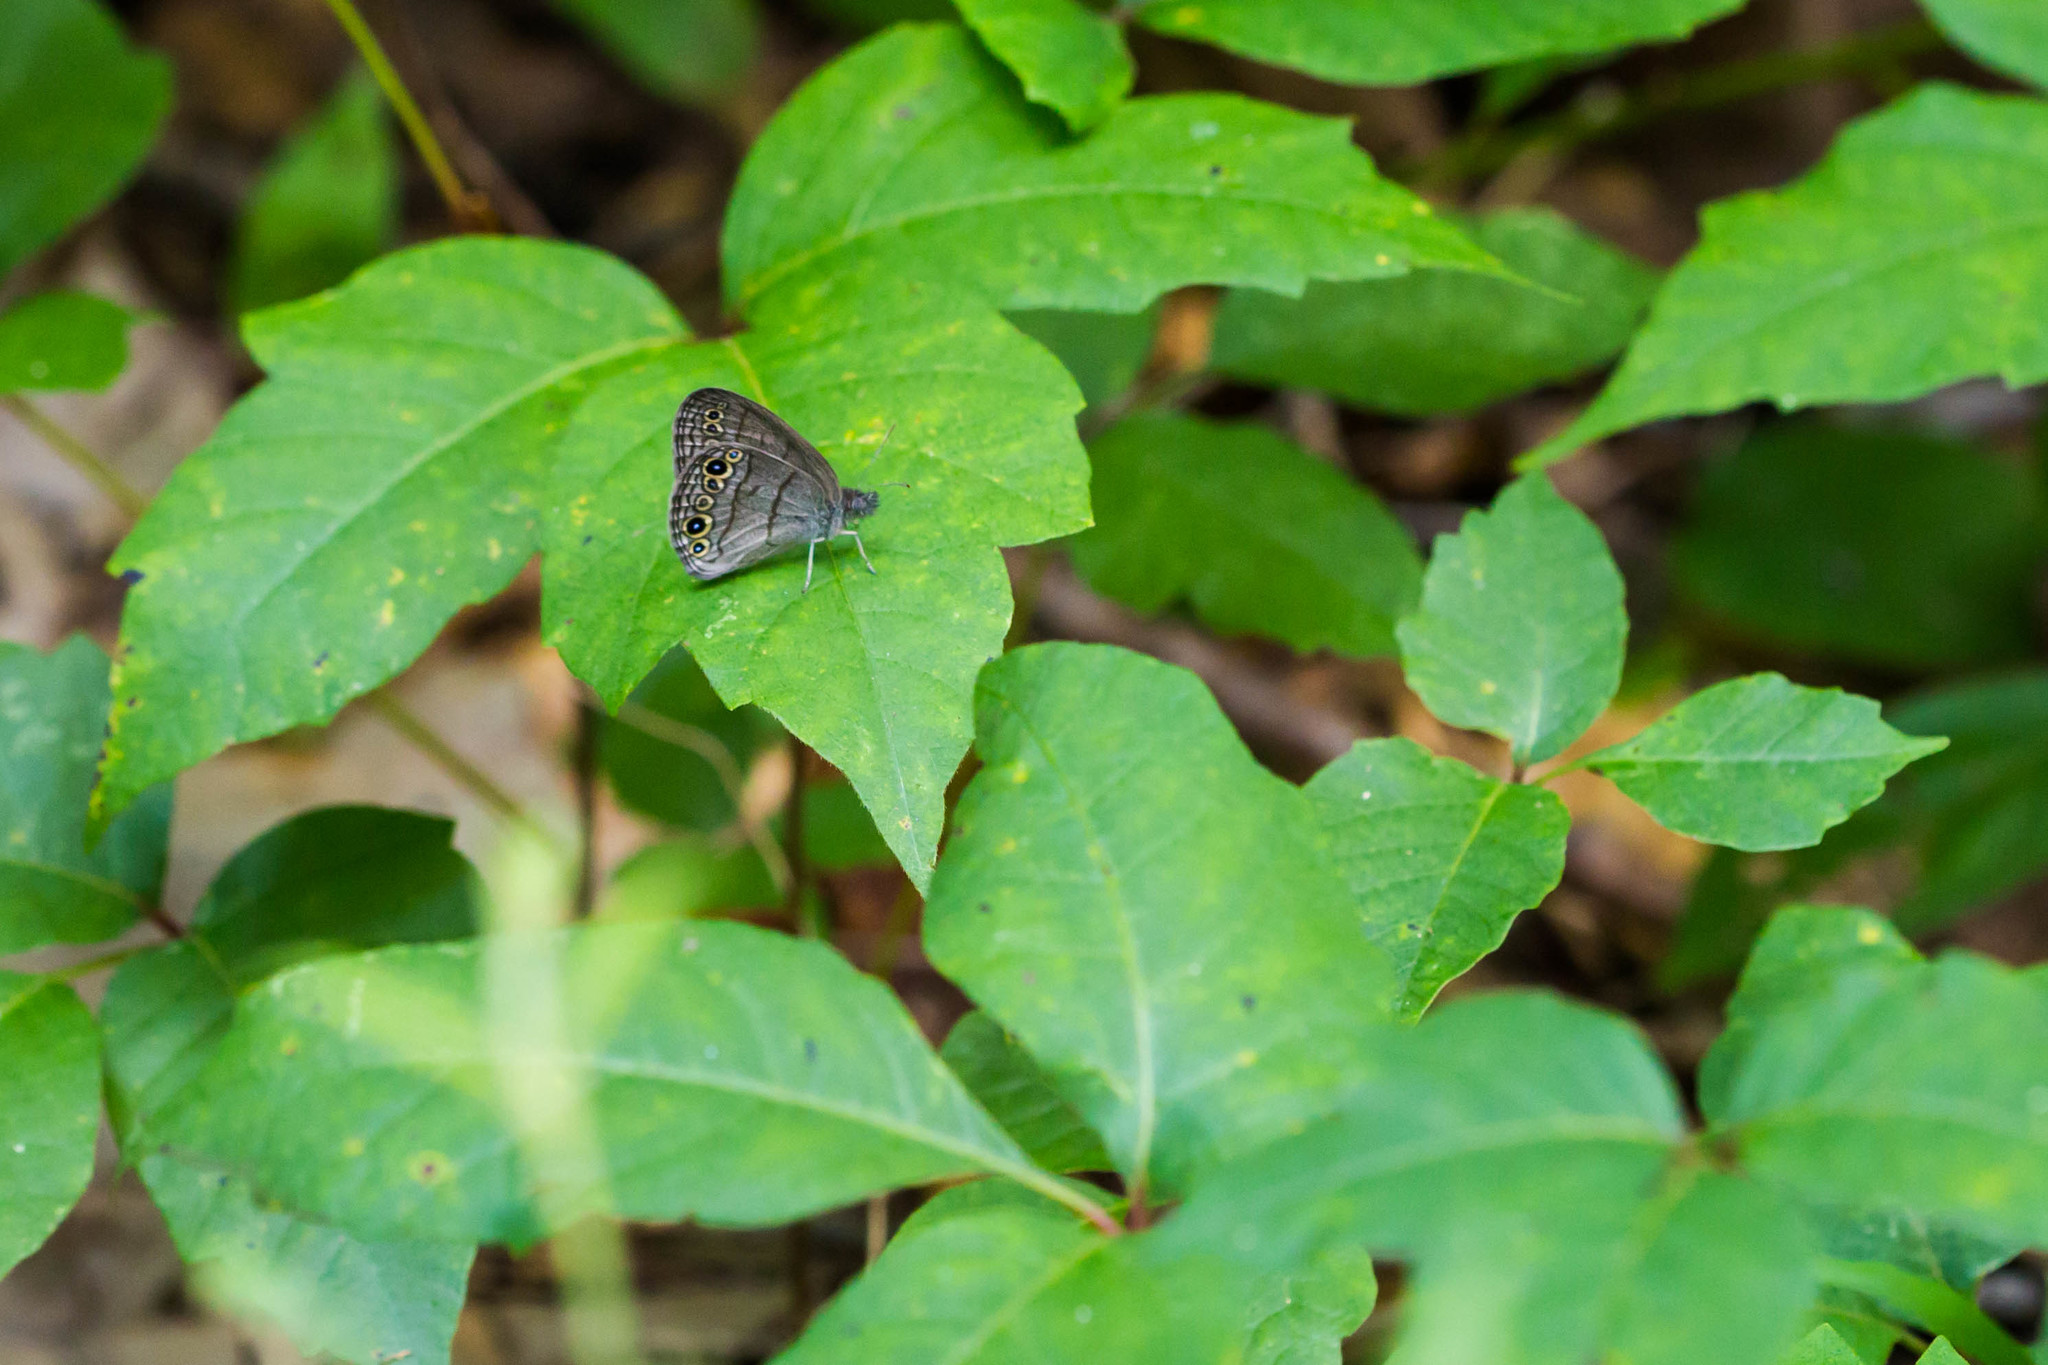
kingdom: Animalia
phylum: Arthropoda
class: Insecta
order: Lepidoptera
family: Nymphalidae
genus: Hermeuptychia
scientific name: Hermeuptychia hermes
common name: Hermes satyr
